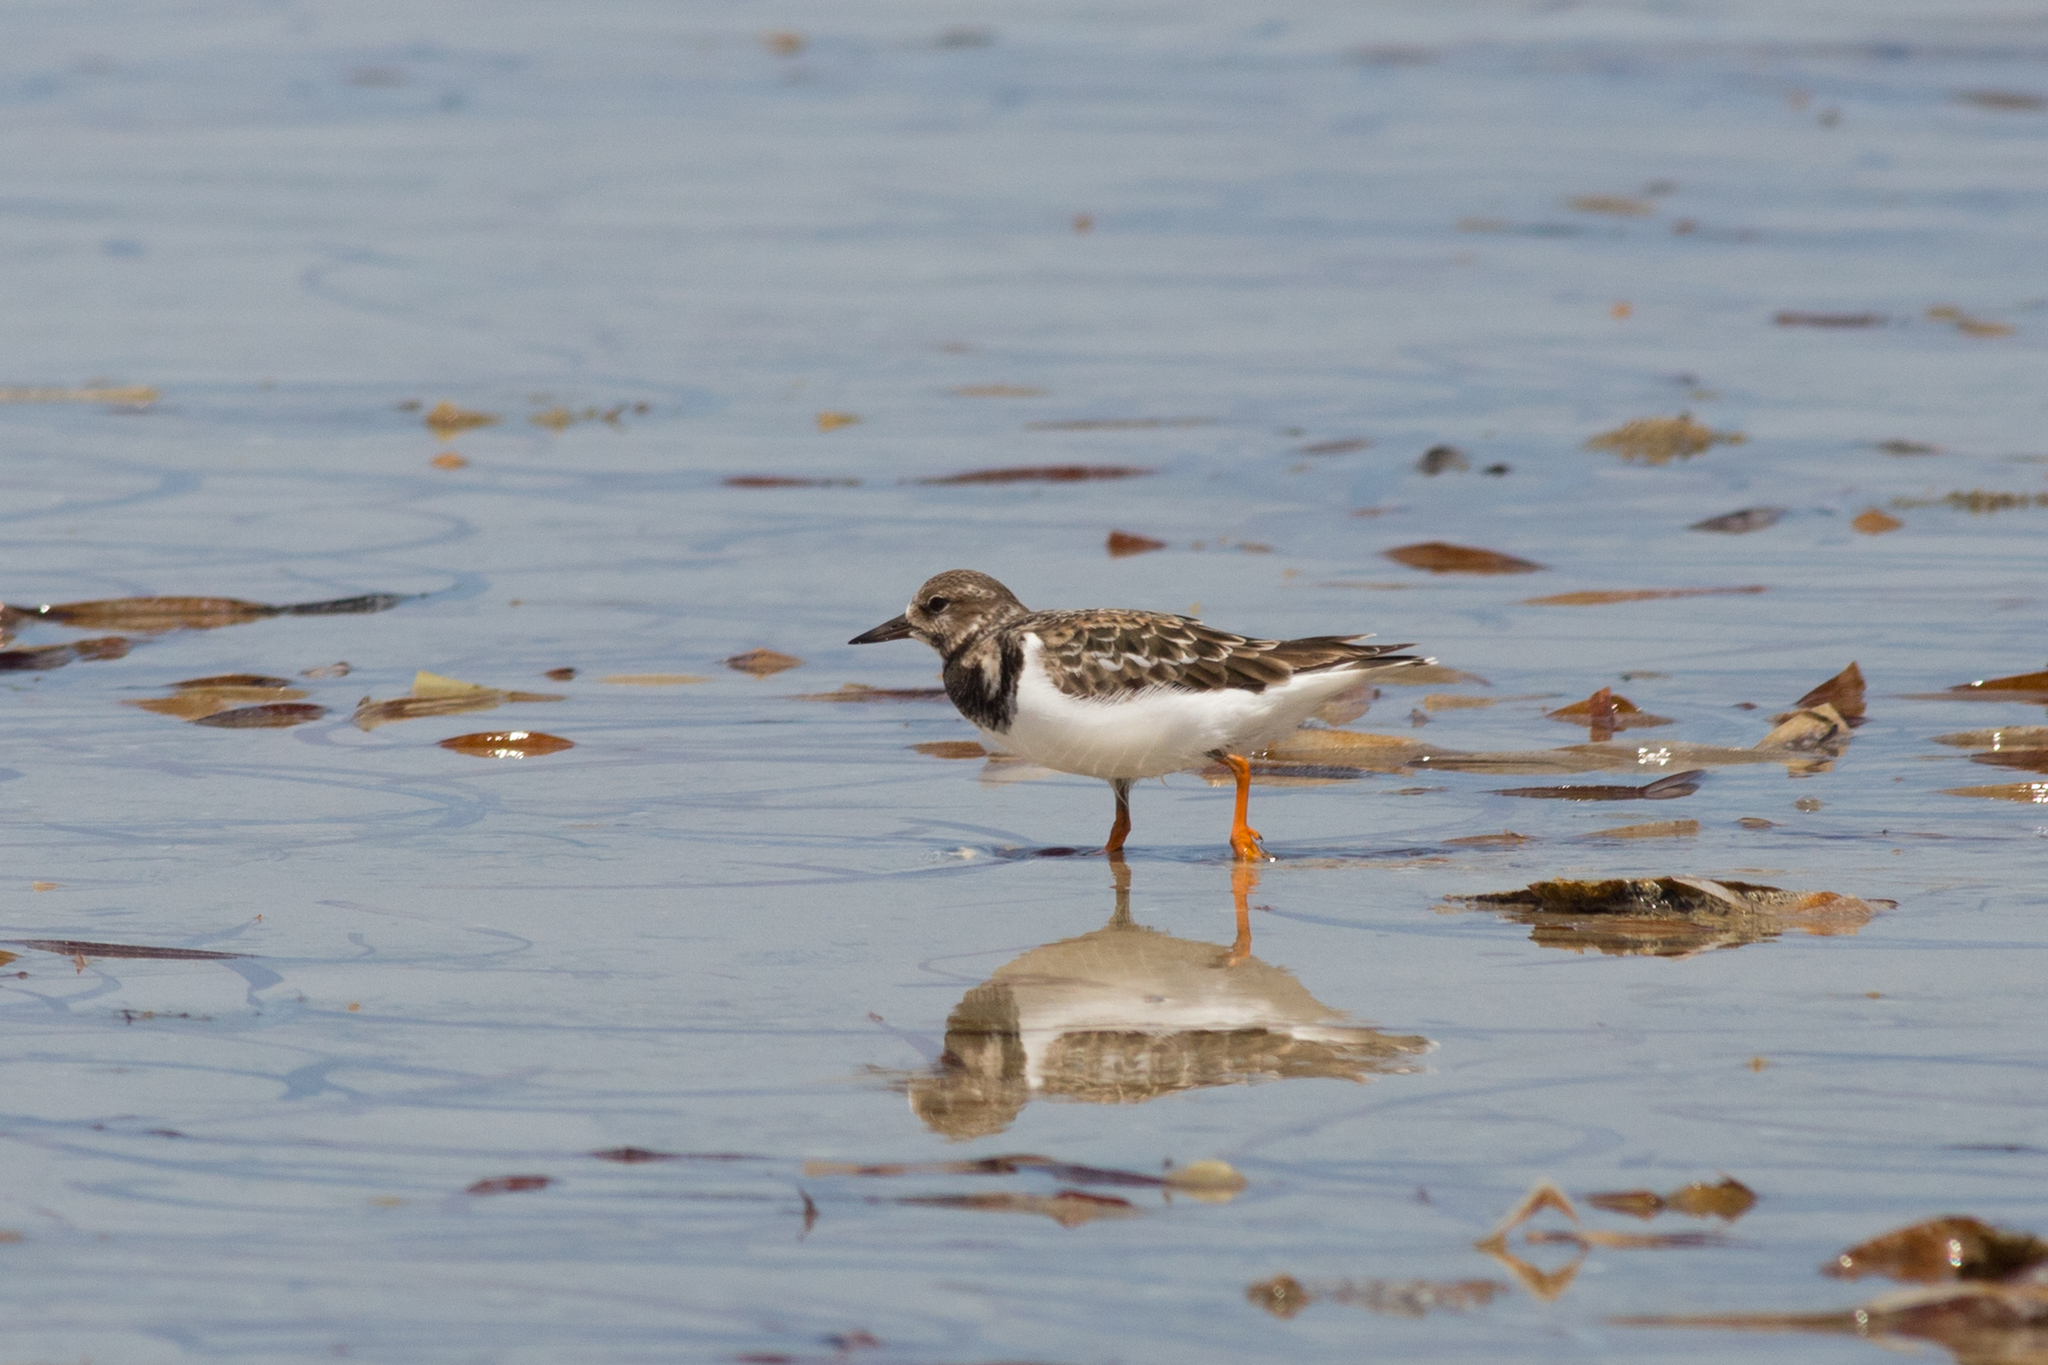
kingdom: Animalia
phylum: Chordata
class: Aves
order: Charadriiformes
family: Scolopacidae
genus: Arenaria
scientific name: Arenaria interpres
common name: Ruddy turnstone
